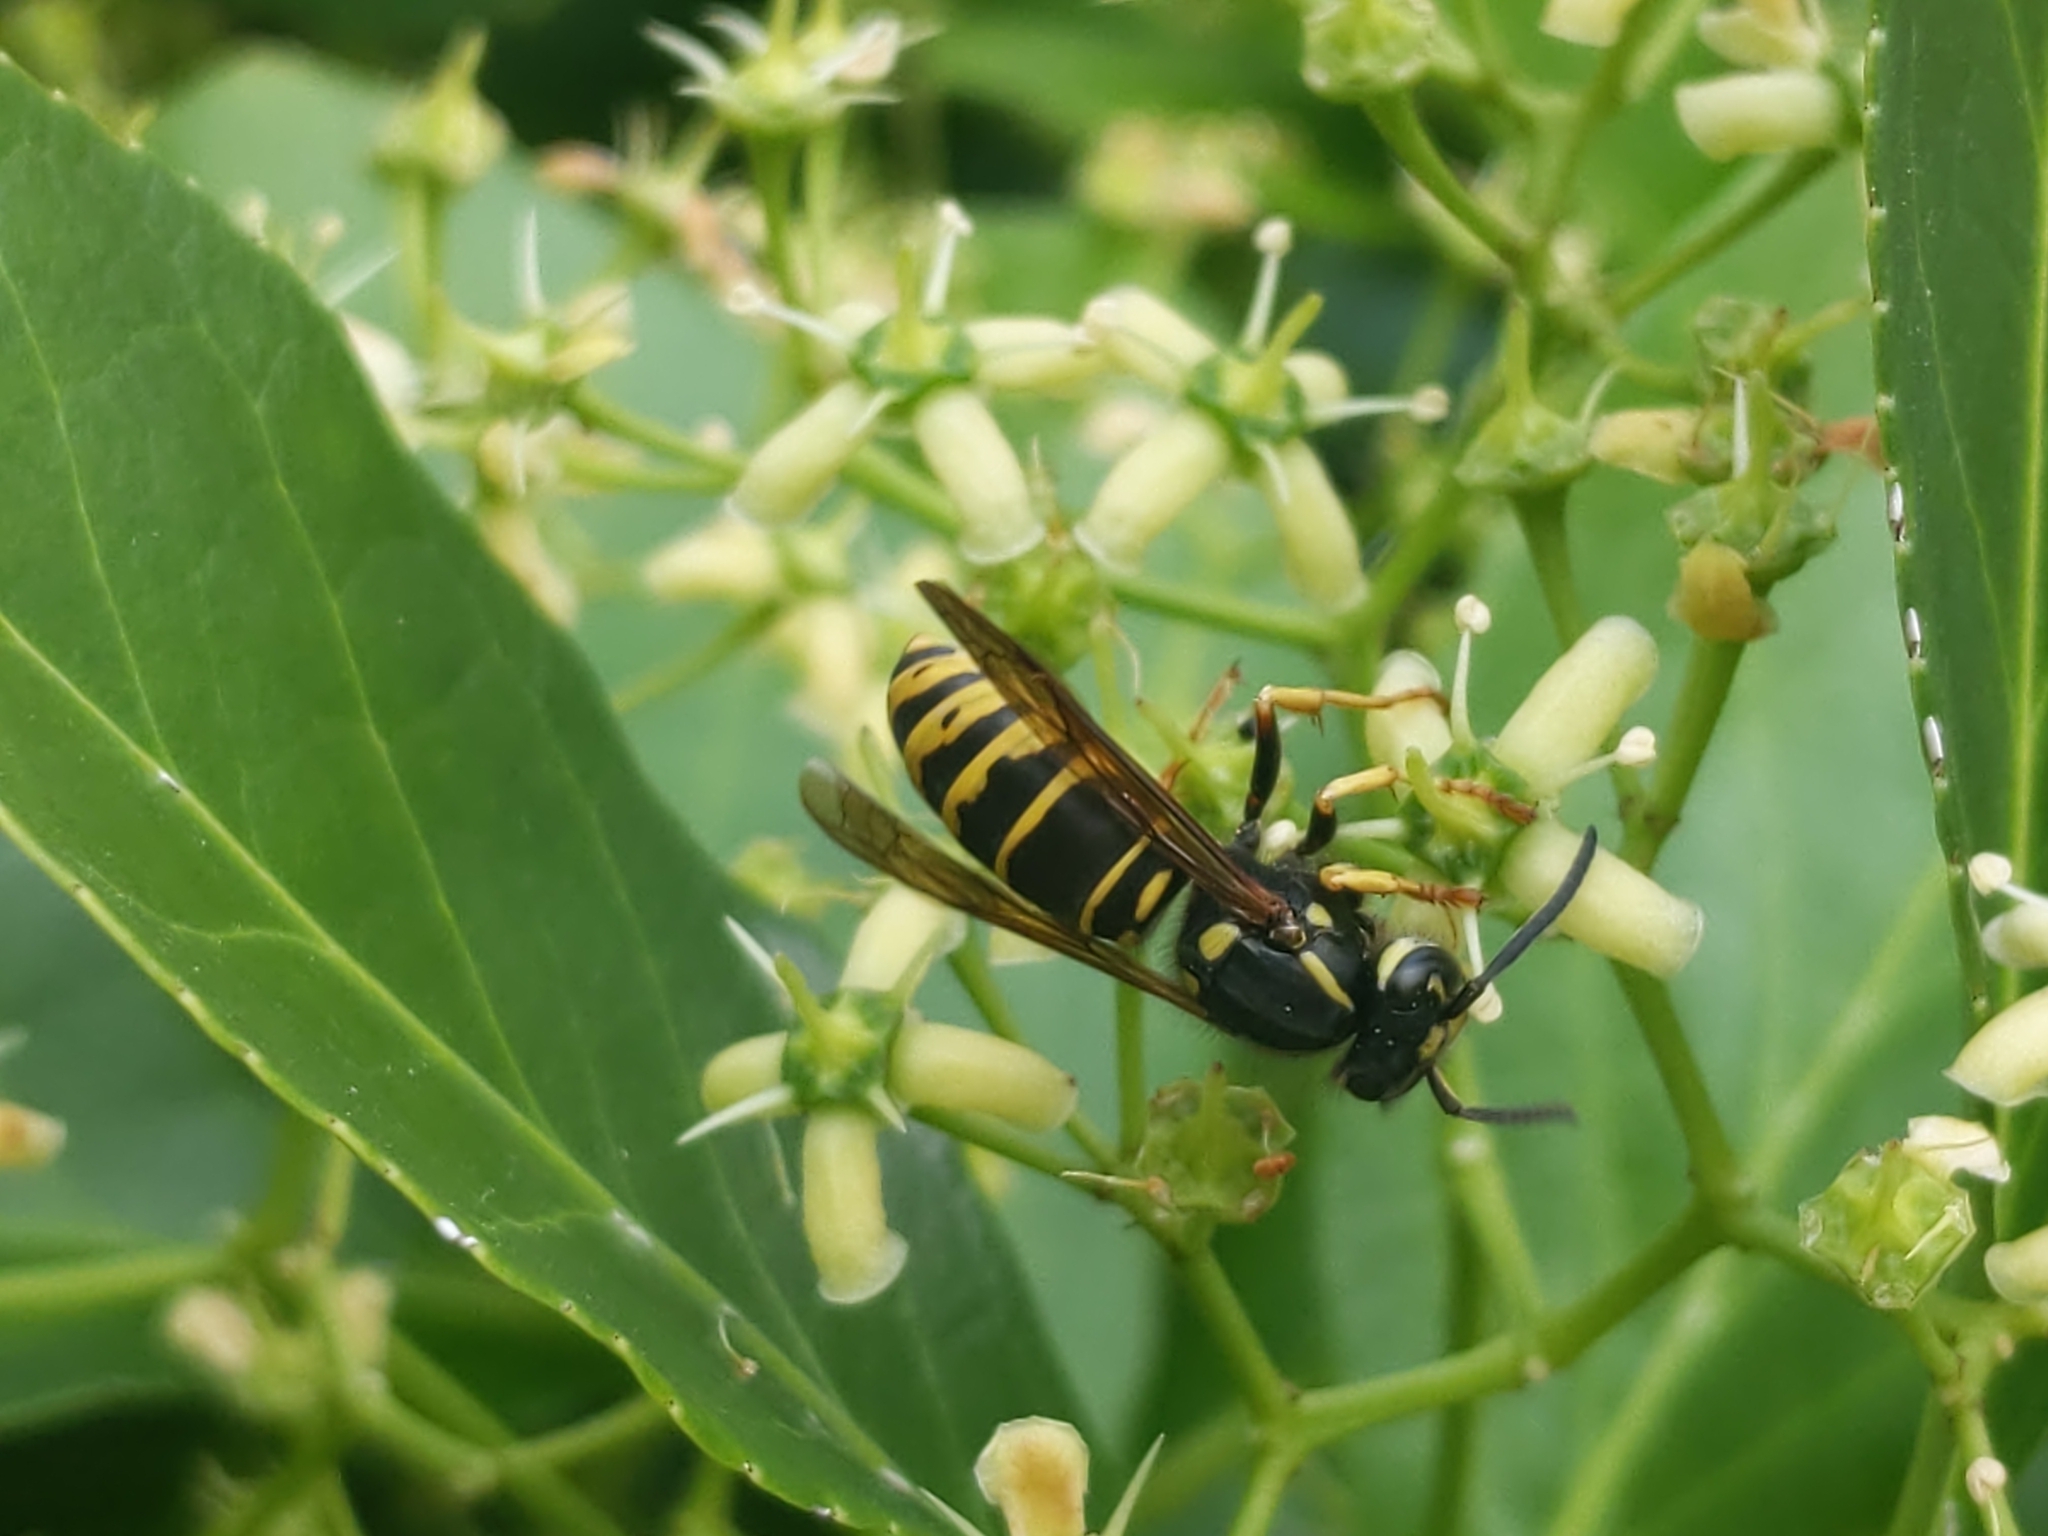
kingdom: Animalia
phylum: Arthropoda
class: Insecta
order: Hymenoptera
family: Vespidae
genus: Vespula
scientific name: Vespula vidua
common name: Widow yellowjacket
